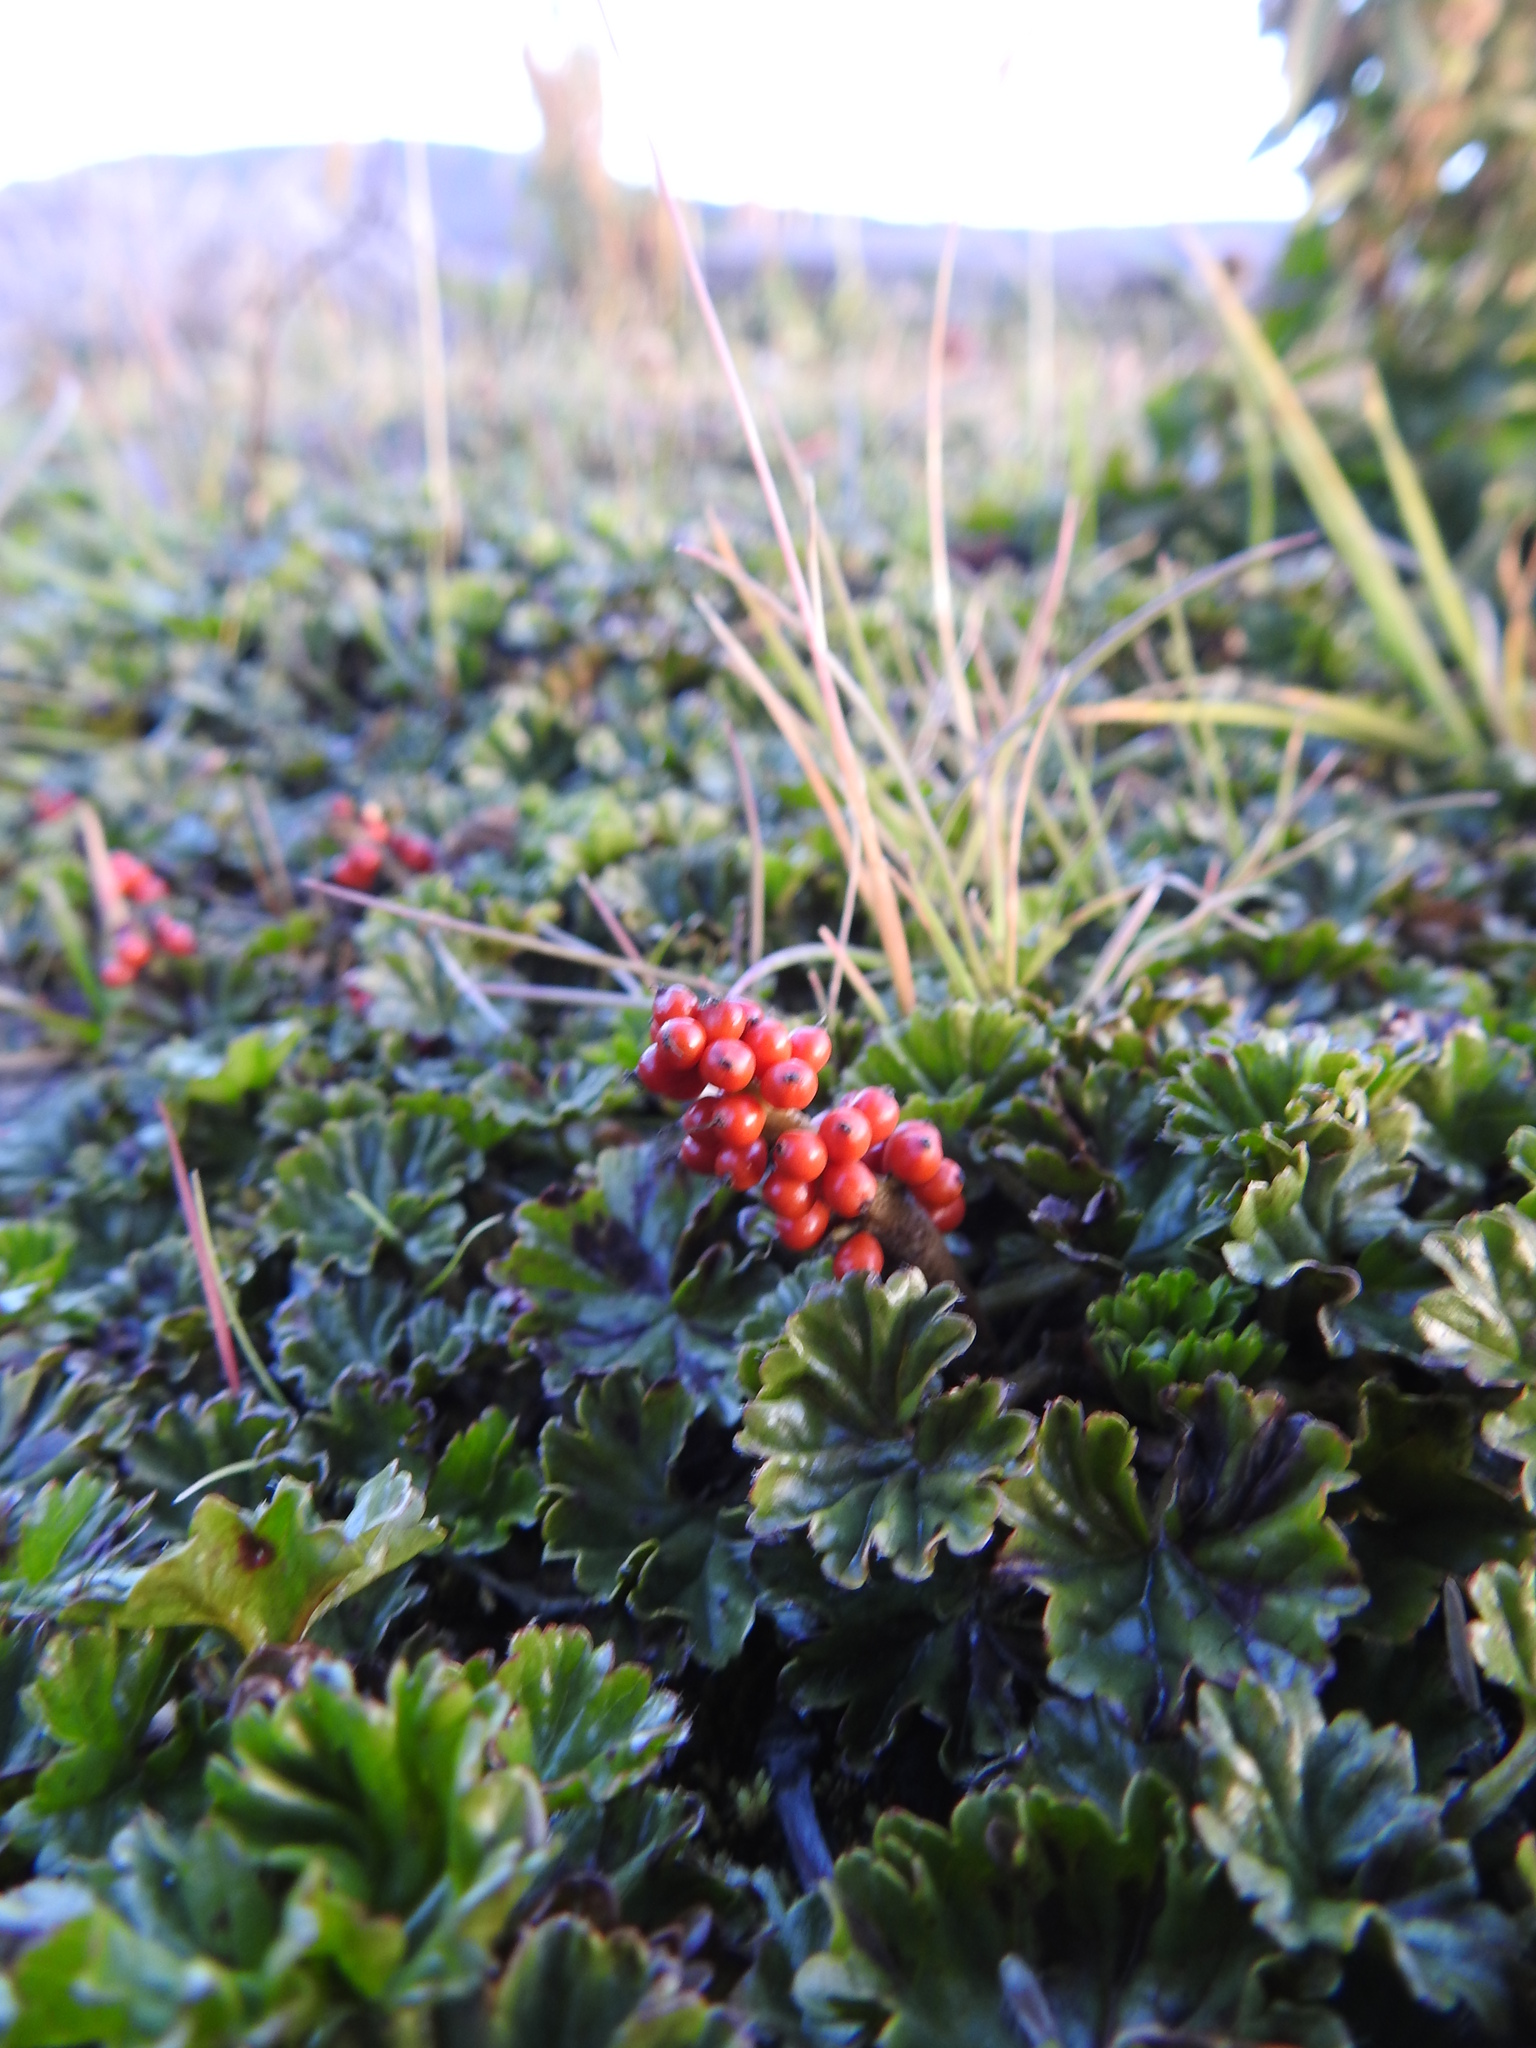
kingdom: Plantae
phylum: Tracheophyta
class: Magnoliopsida
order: Gunnerales
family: Gunneraceae
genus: Gunnera
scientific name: Gunnera magellanica
